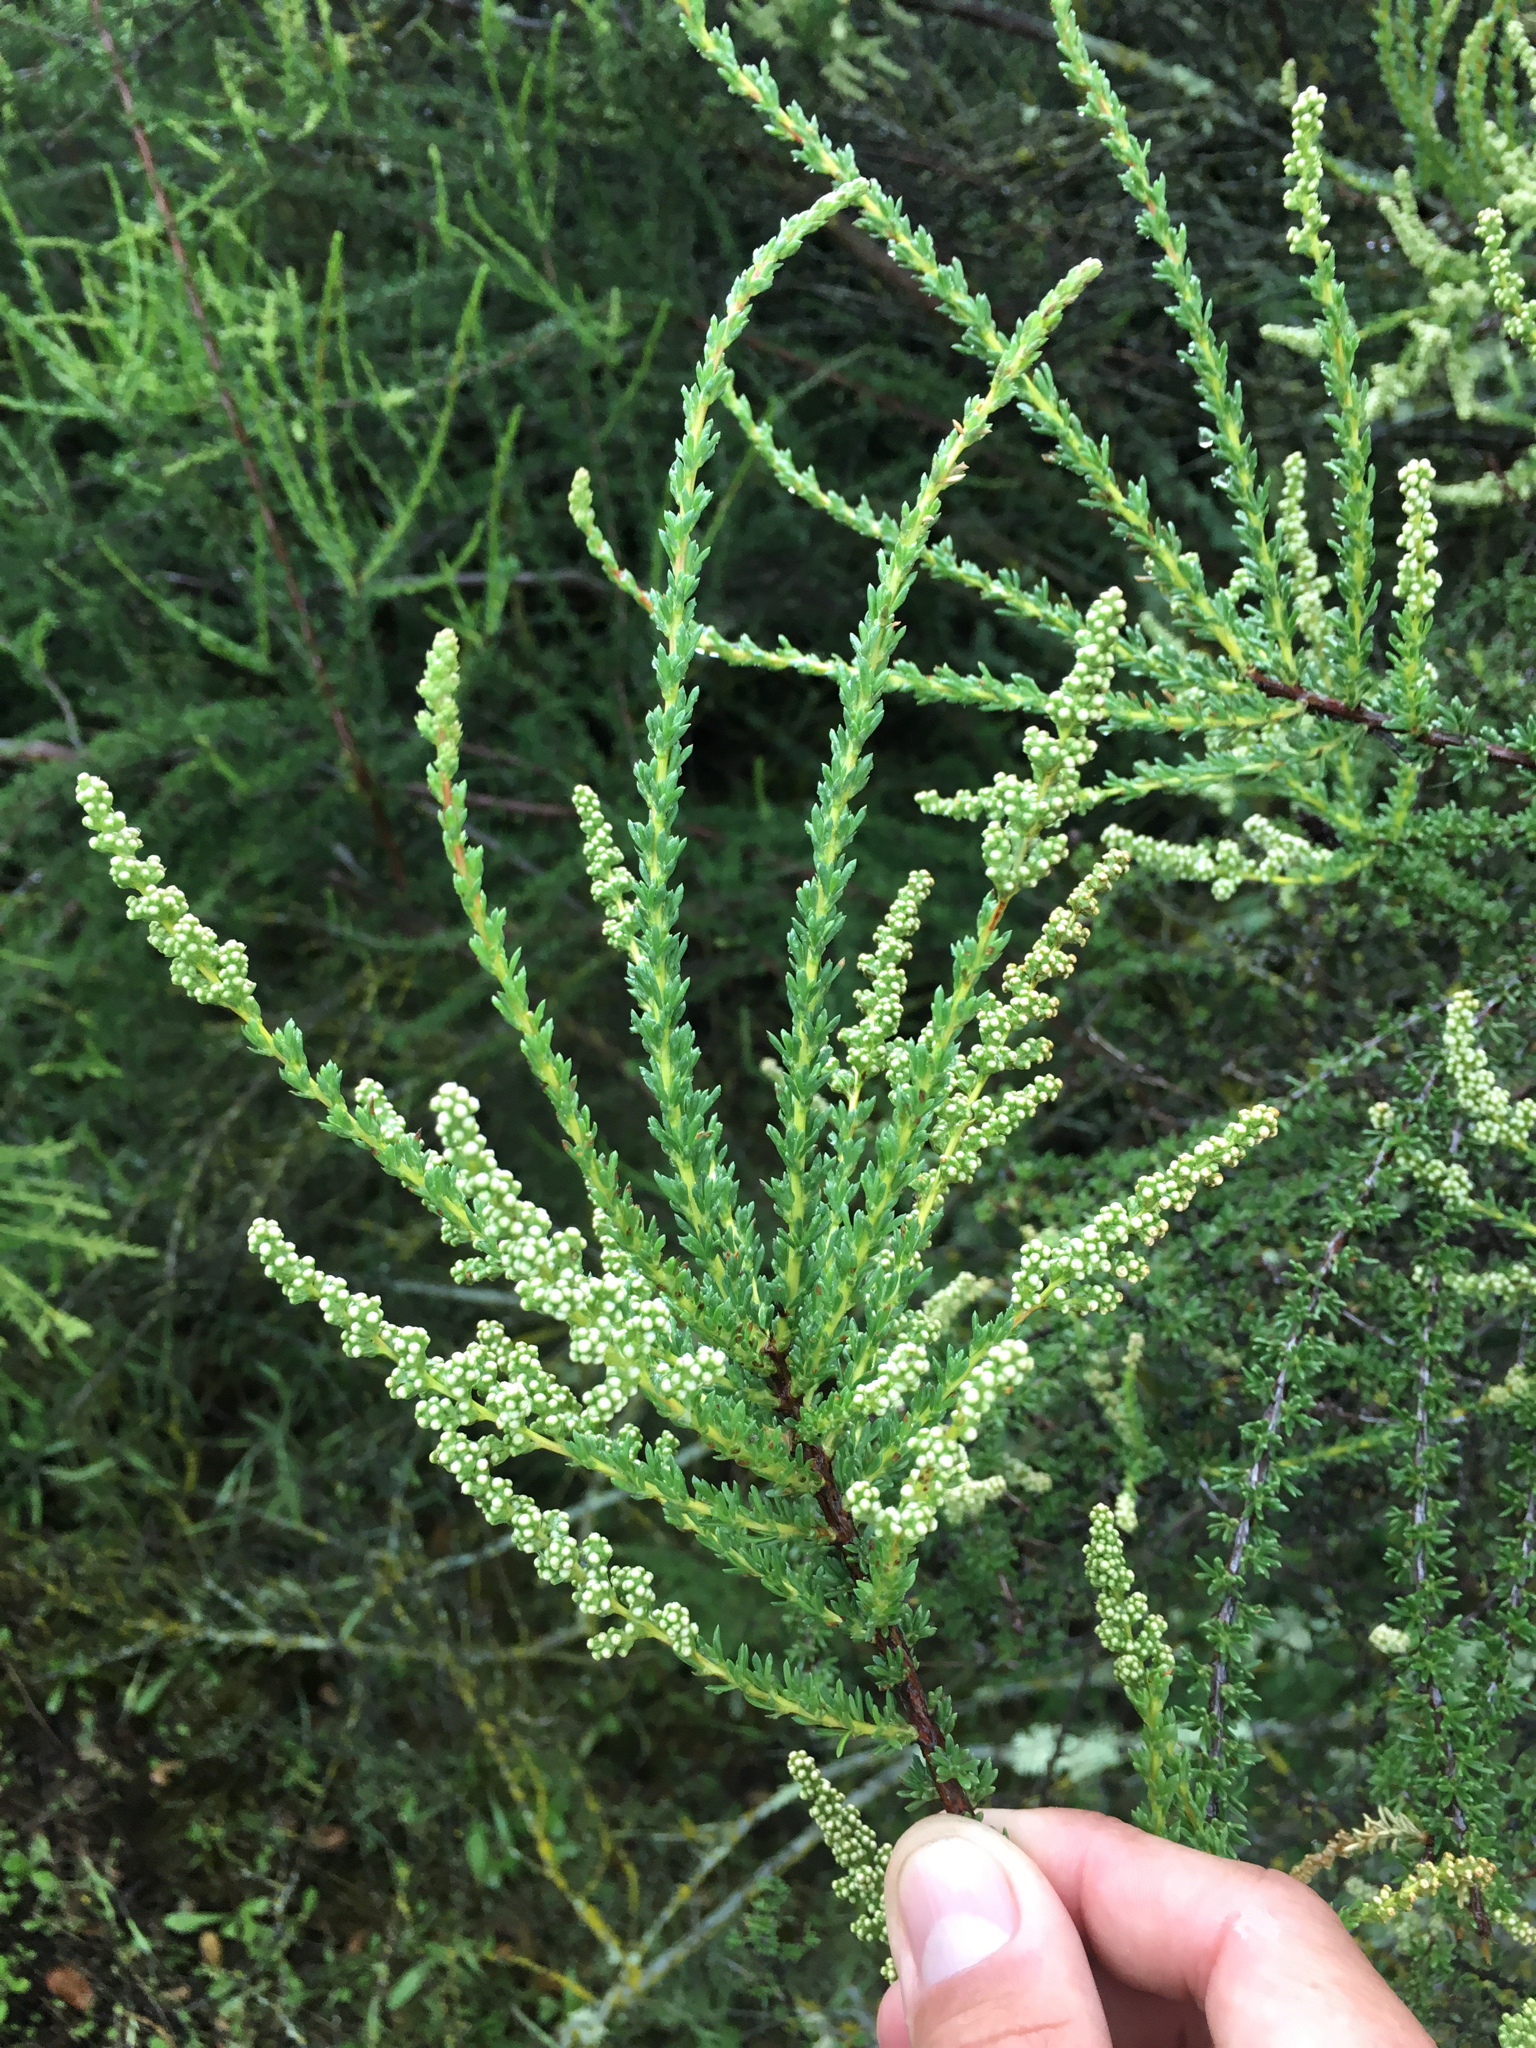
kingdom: Plantae
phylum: Tracheophyta
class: Magnoliopsida
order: Rosales
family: Rosaceae
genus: Adenostoma
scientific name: Adenostoma fasciculatum
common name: Chamise
